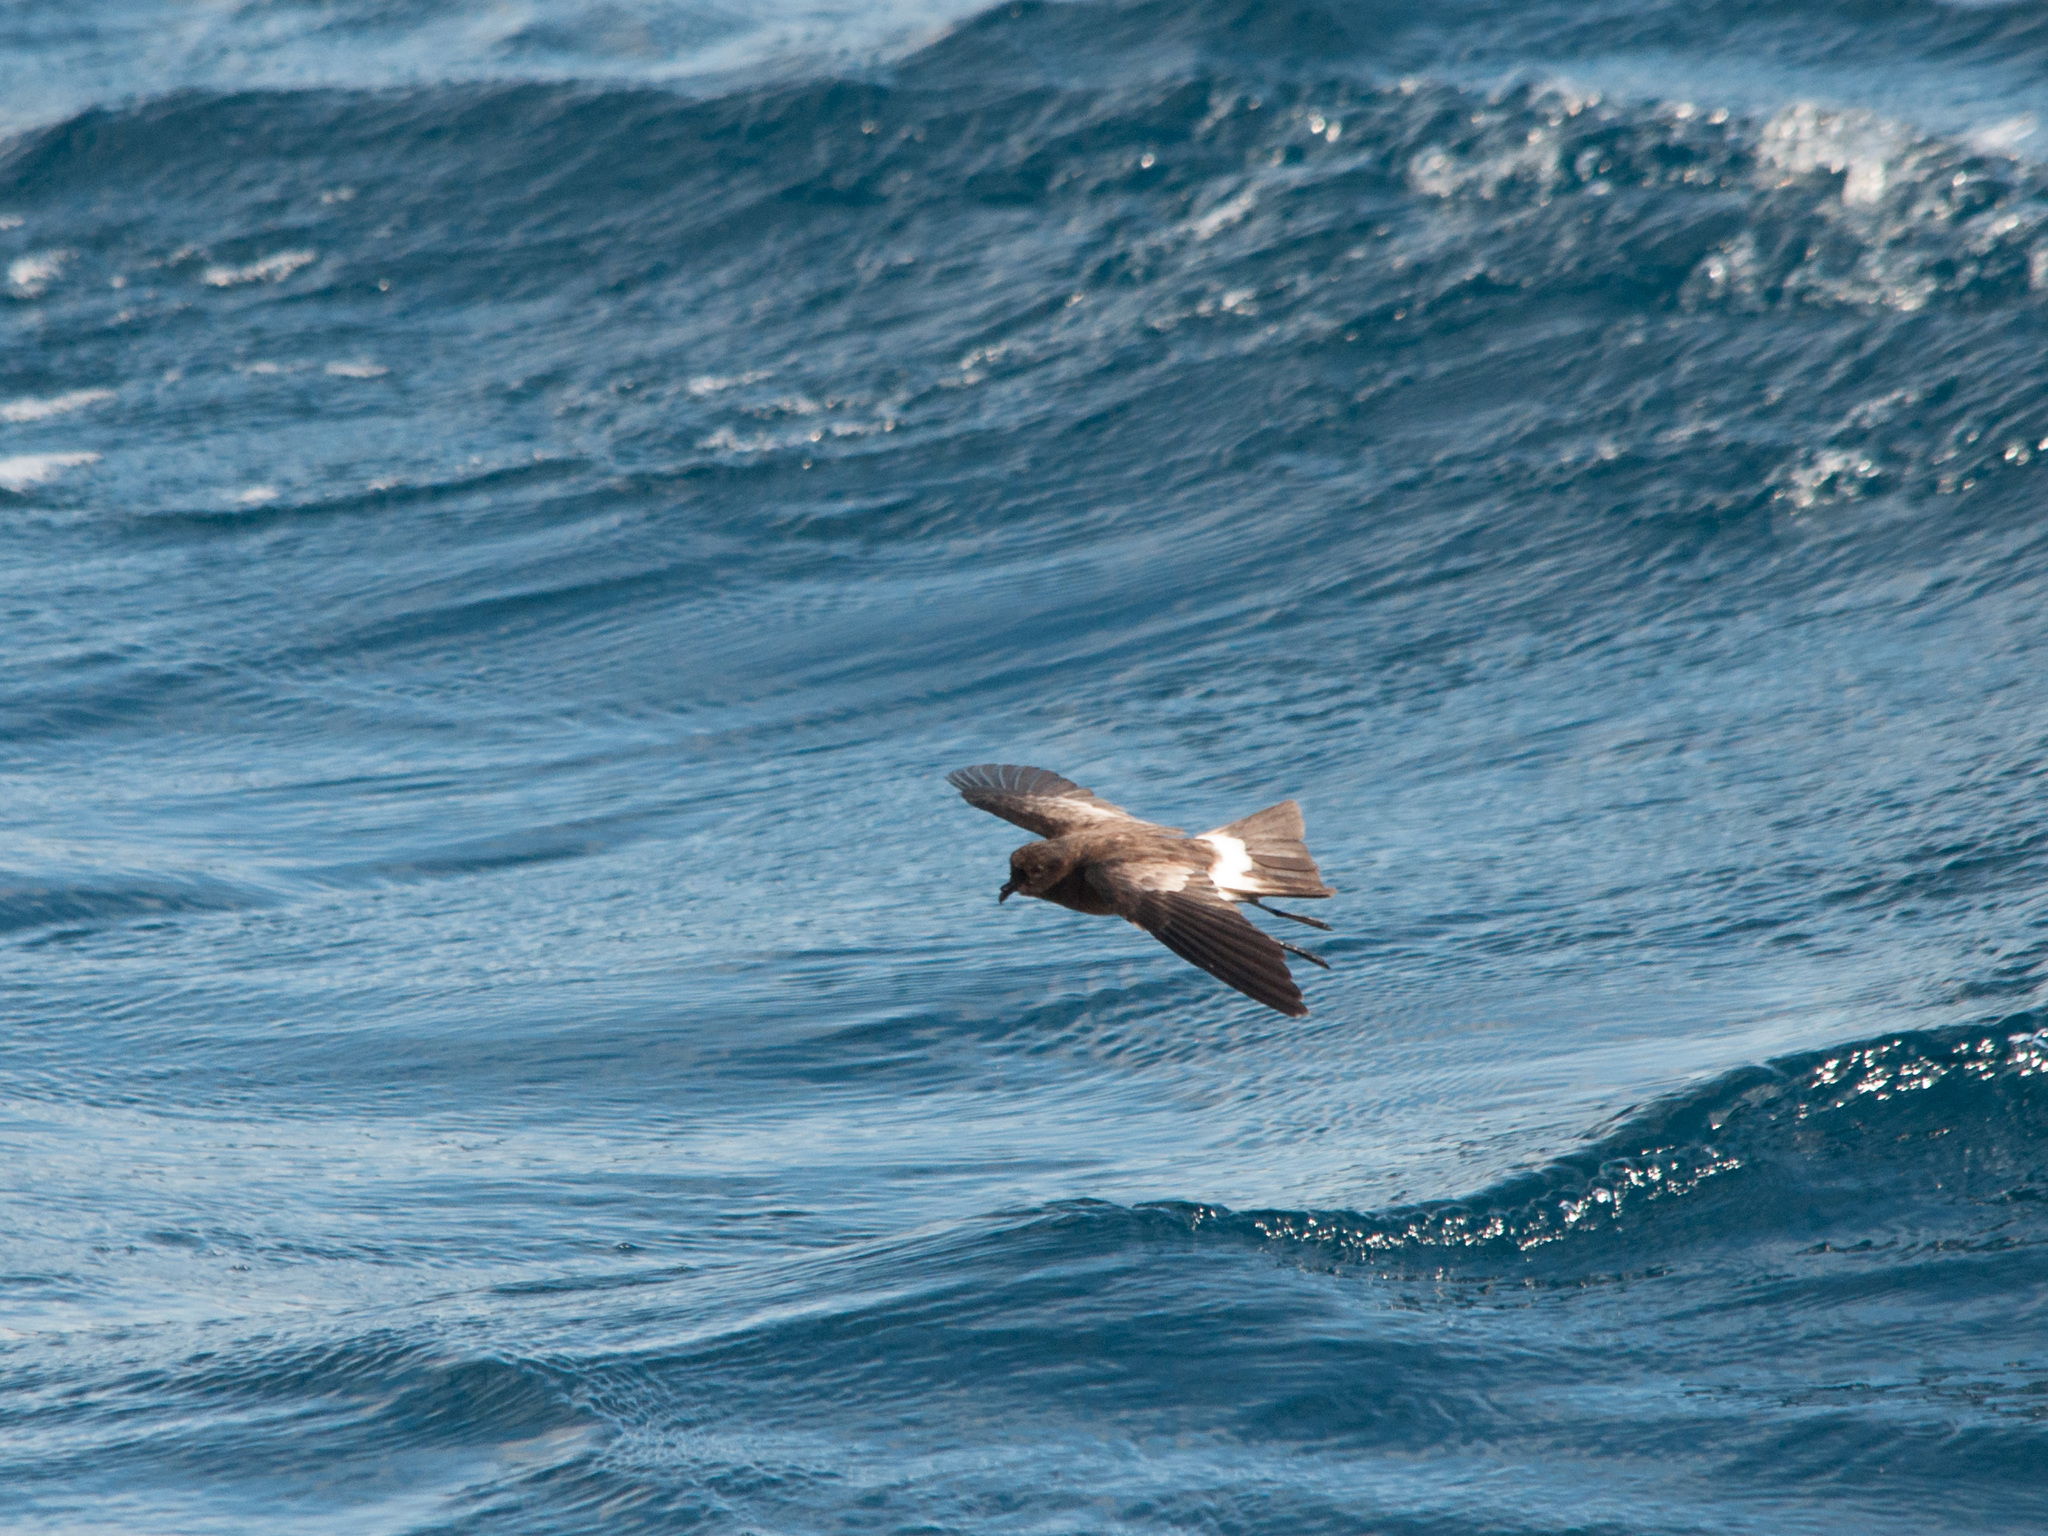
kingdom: Animalia
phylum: Chordata
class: Aves
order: Procellariiformes
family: Hydrobatidae
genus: Oceanites
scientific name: Oceanites gracilis
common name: Elliot's storm-petrel
